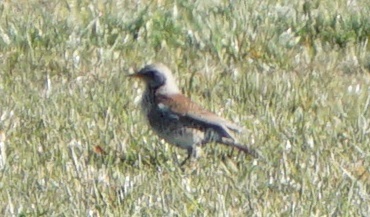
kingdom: Animalia
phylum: Chordata
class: Aves
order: Passeriformes
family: Turdidae
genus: Turdus
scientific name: Turdus pilaris
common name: Fieldfare
